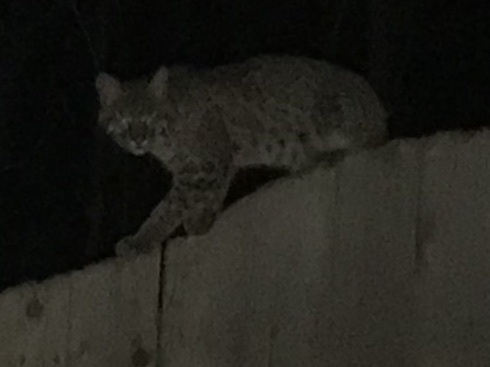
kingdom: Animalia
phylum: Chordata
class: Mammalia
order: Carnivora
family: Felidae
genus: Lynx
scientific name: Lynx rufus
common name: Bobcat
